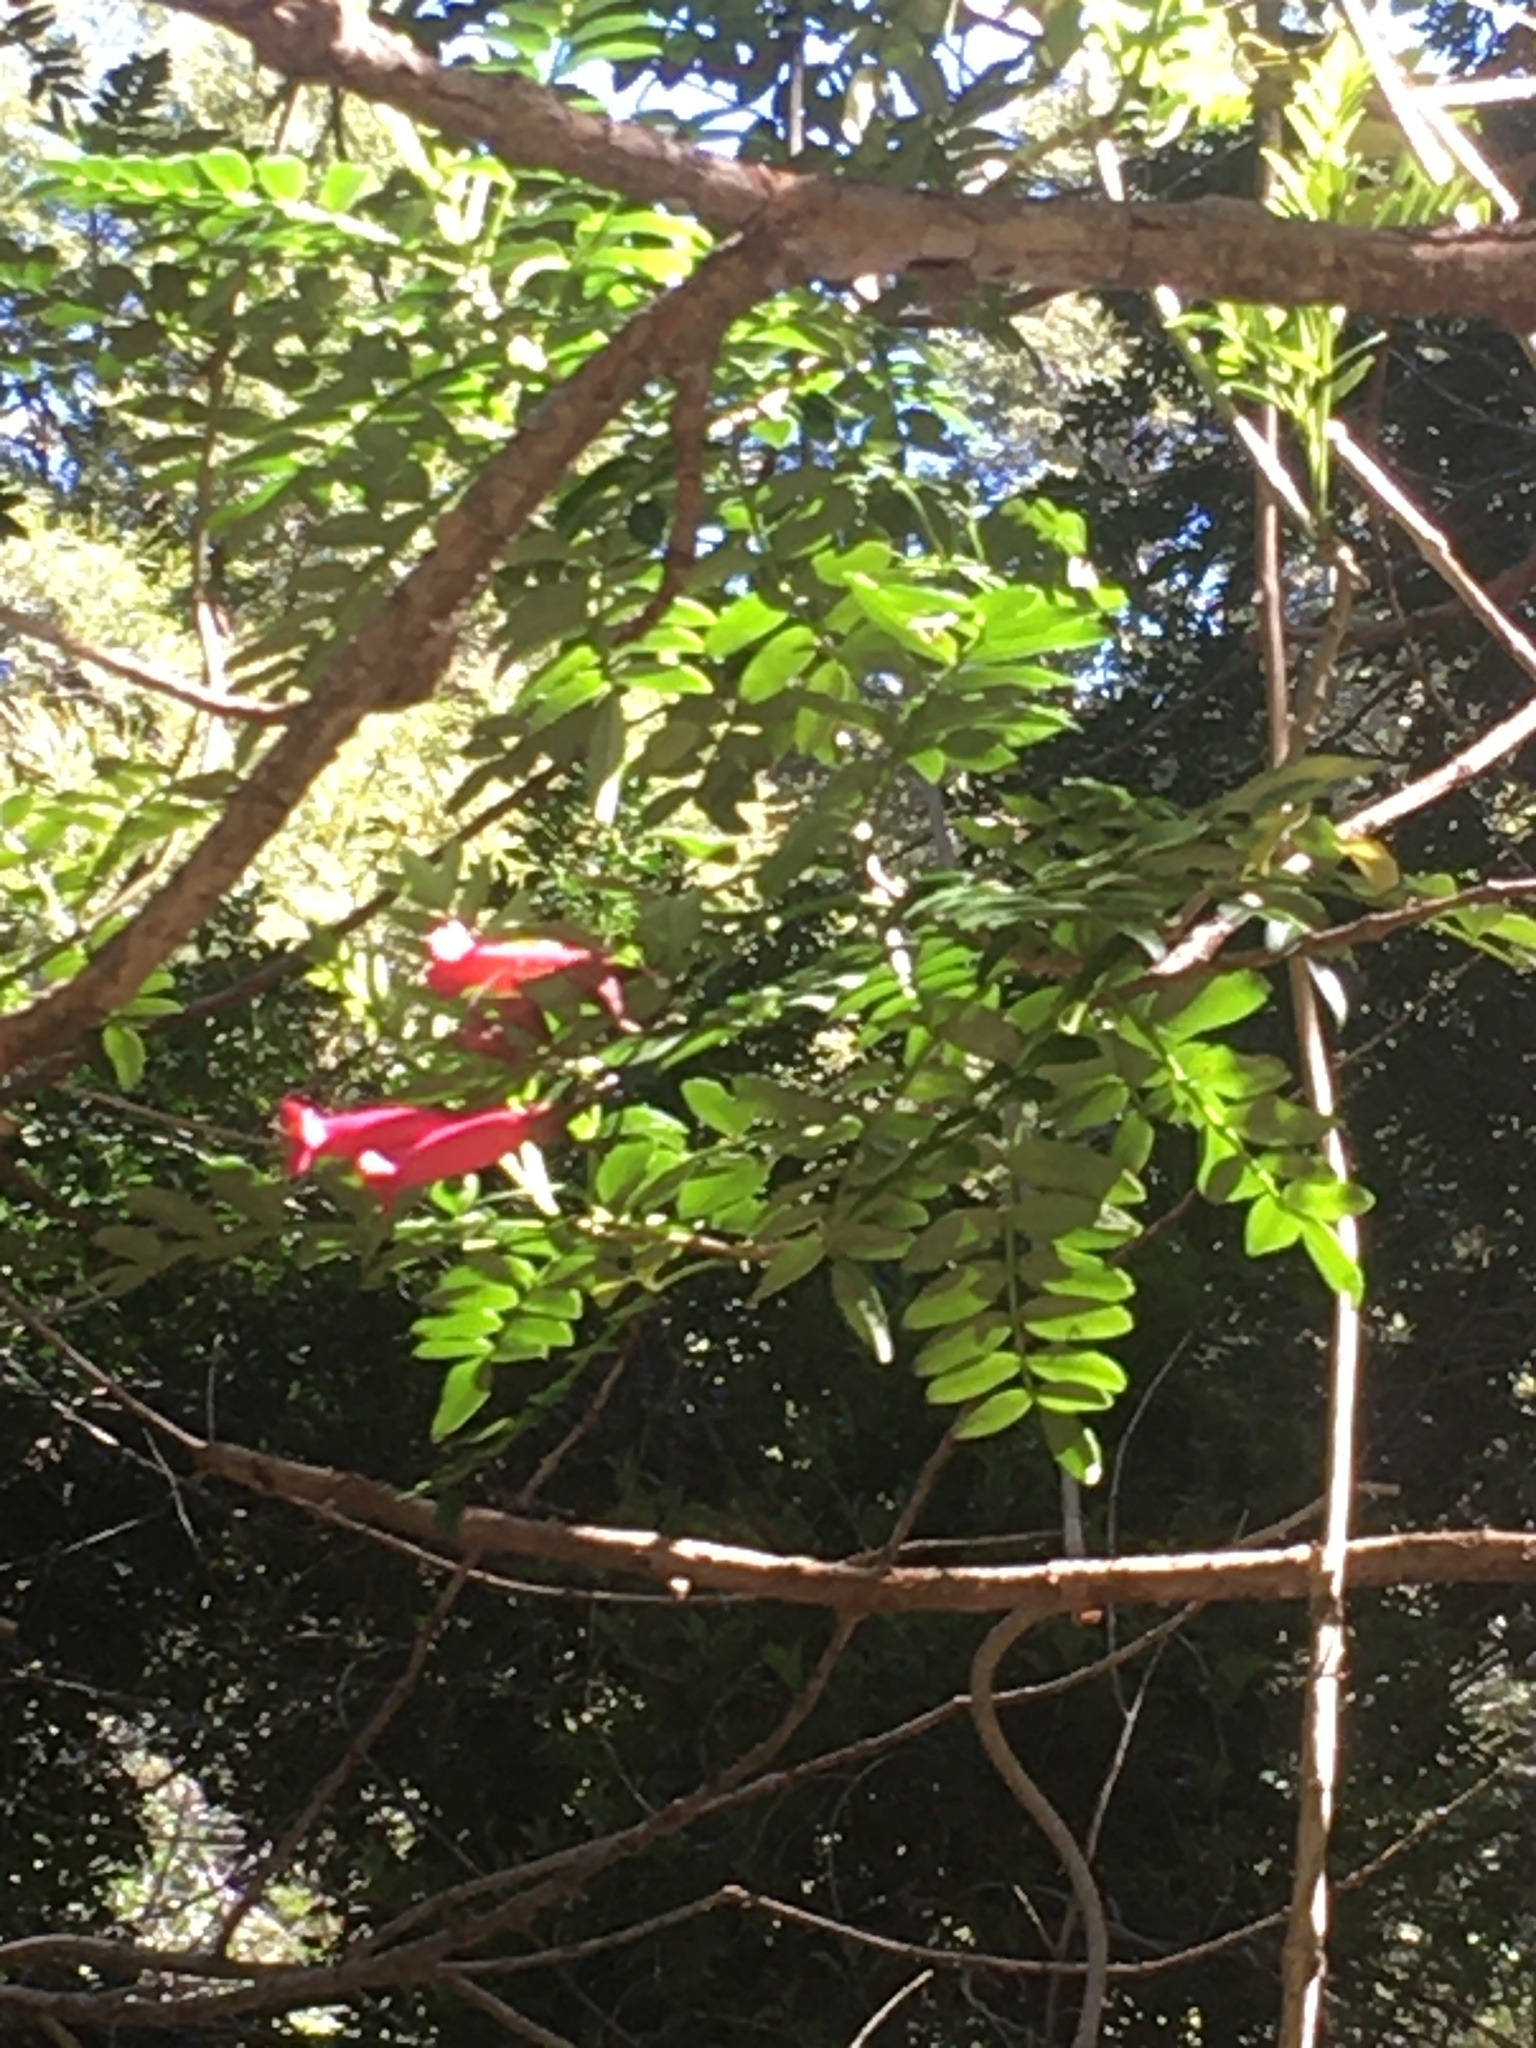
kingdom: Plantae
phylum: Tracheophyta
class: Magnoliopsida
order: Lamiales
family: Bignoniaceae
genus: Campsidium
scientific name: Campsidium valdivianum
